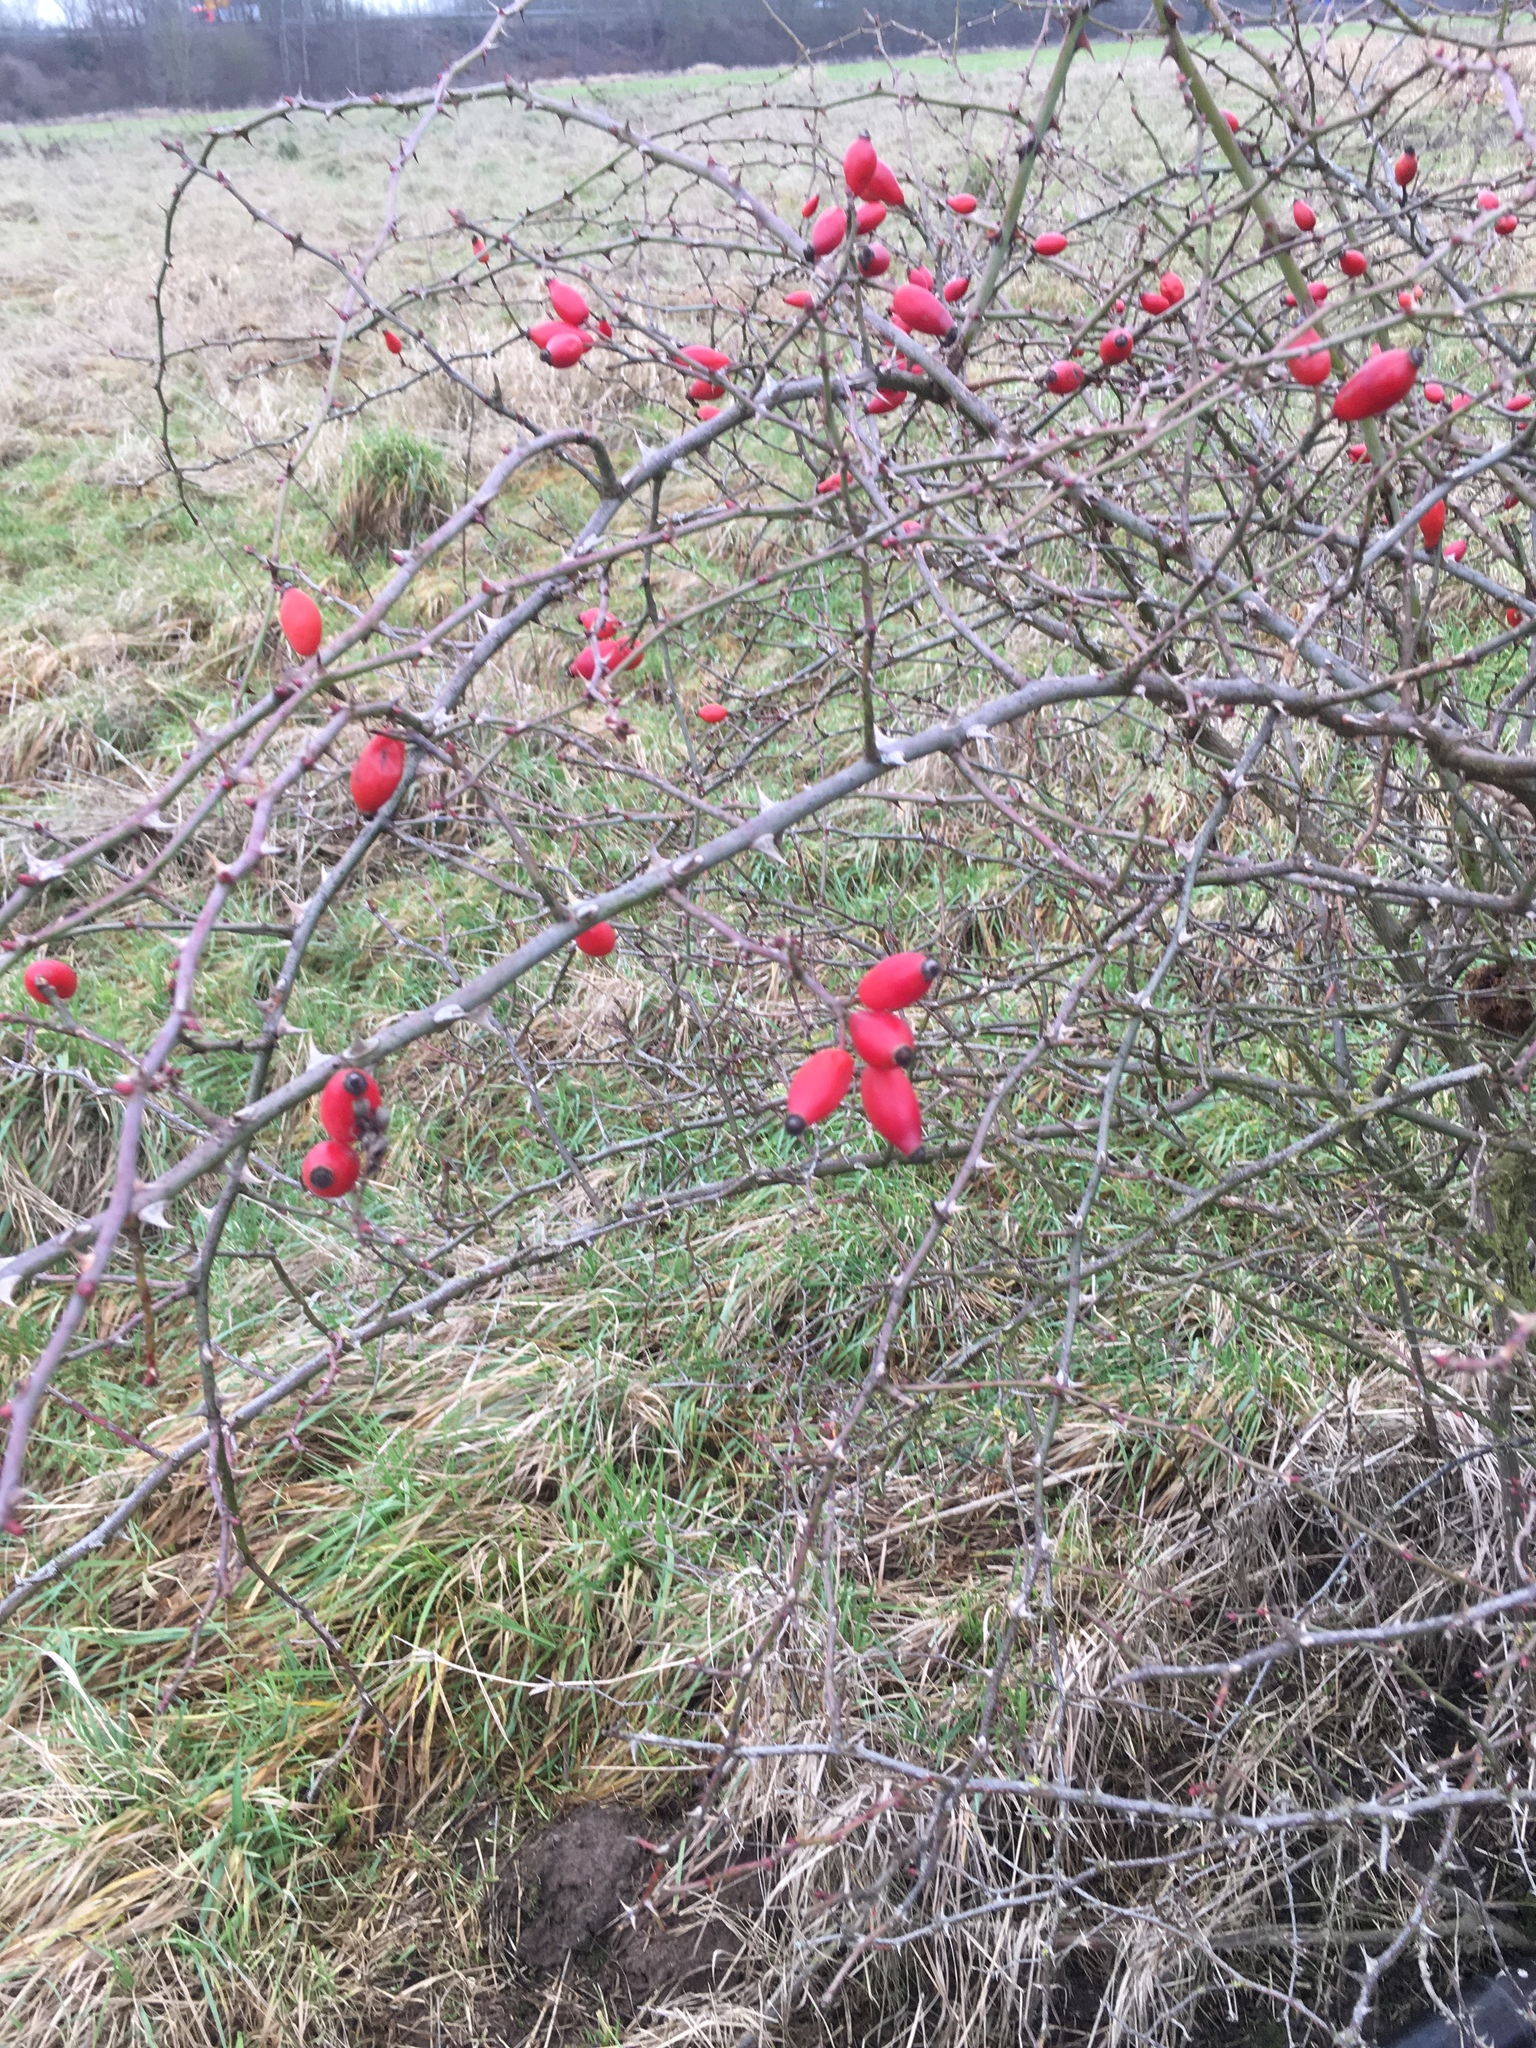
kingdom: Plantae
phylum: Tracheophyta
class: Magnoliopsida
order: Rosales
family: Rosaceae
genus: Rosa
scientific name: Rosa canina
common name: Dog rose
